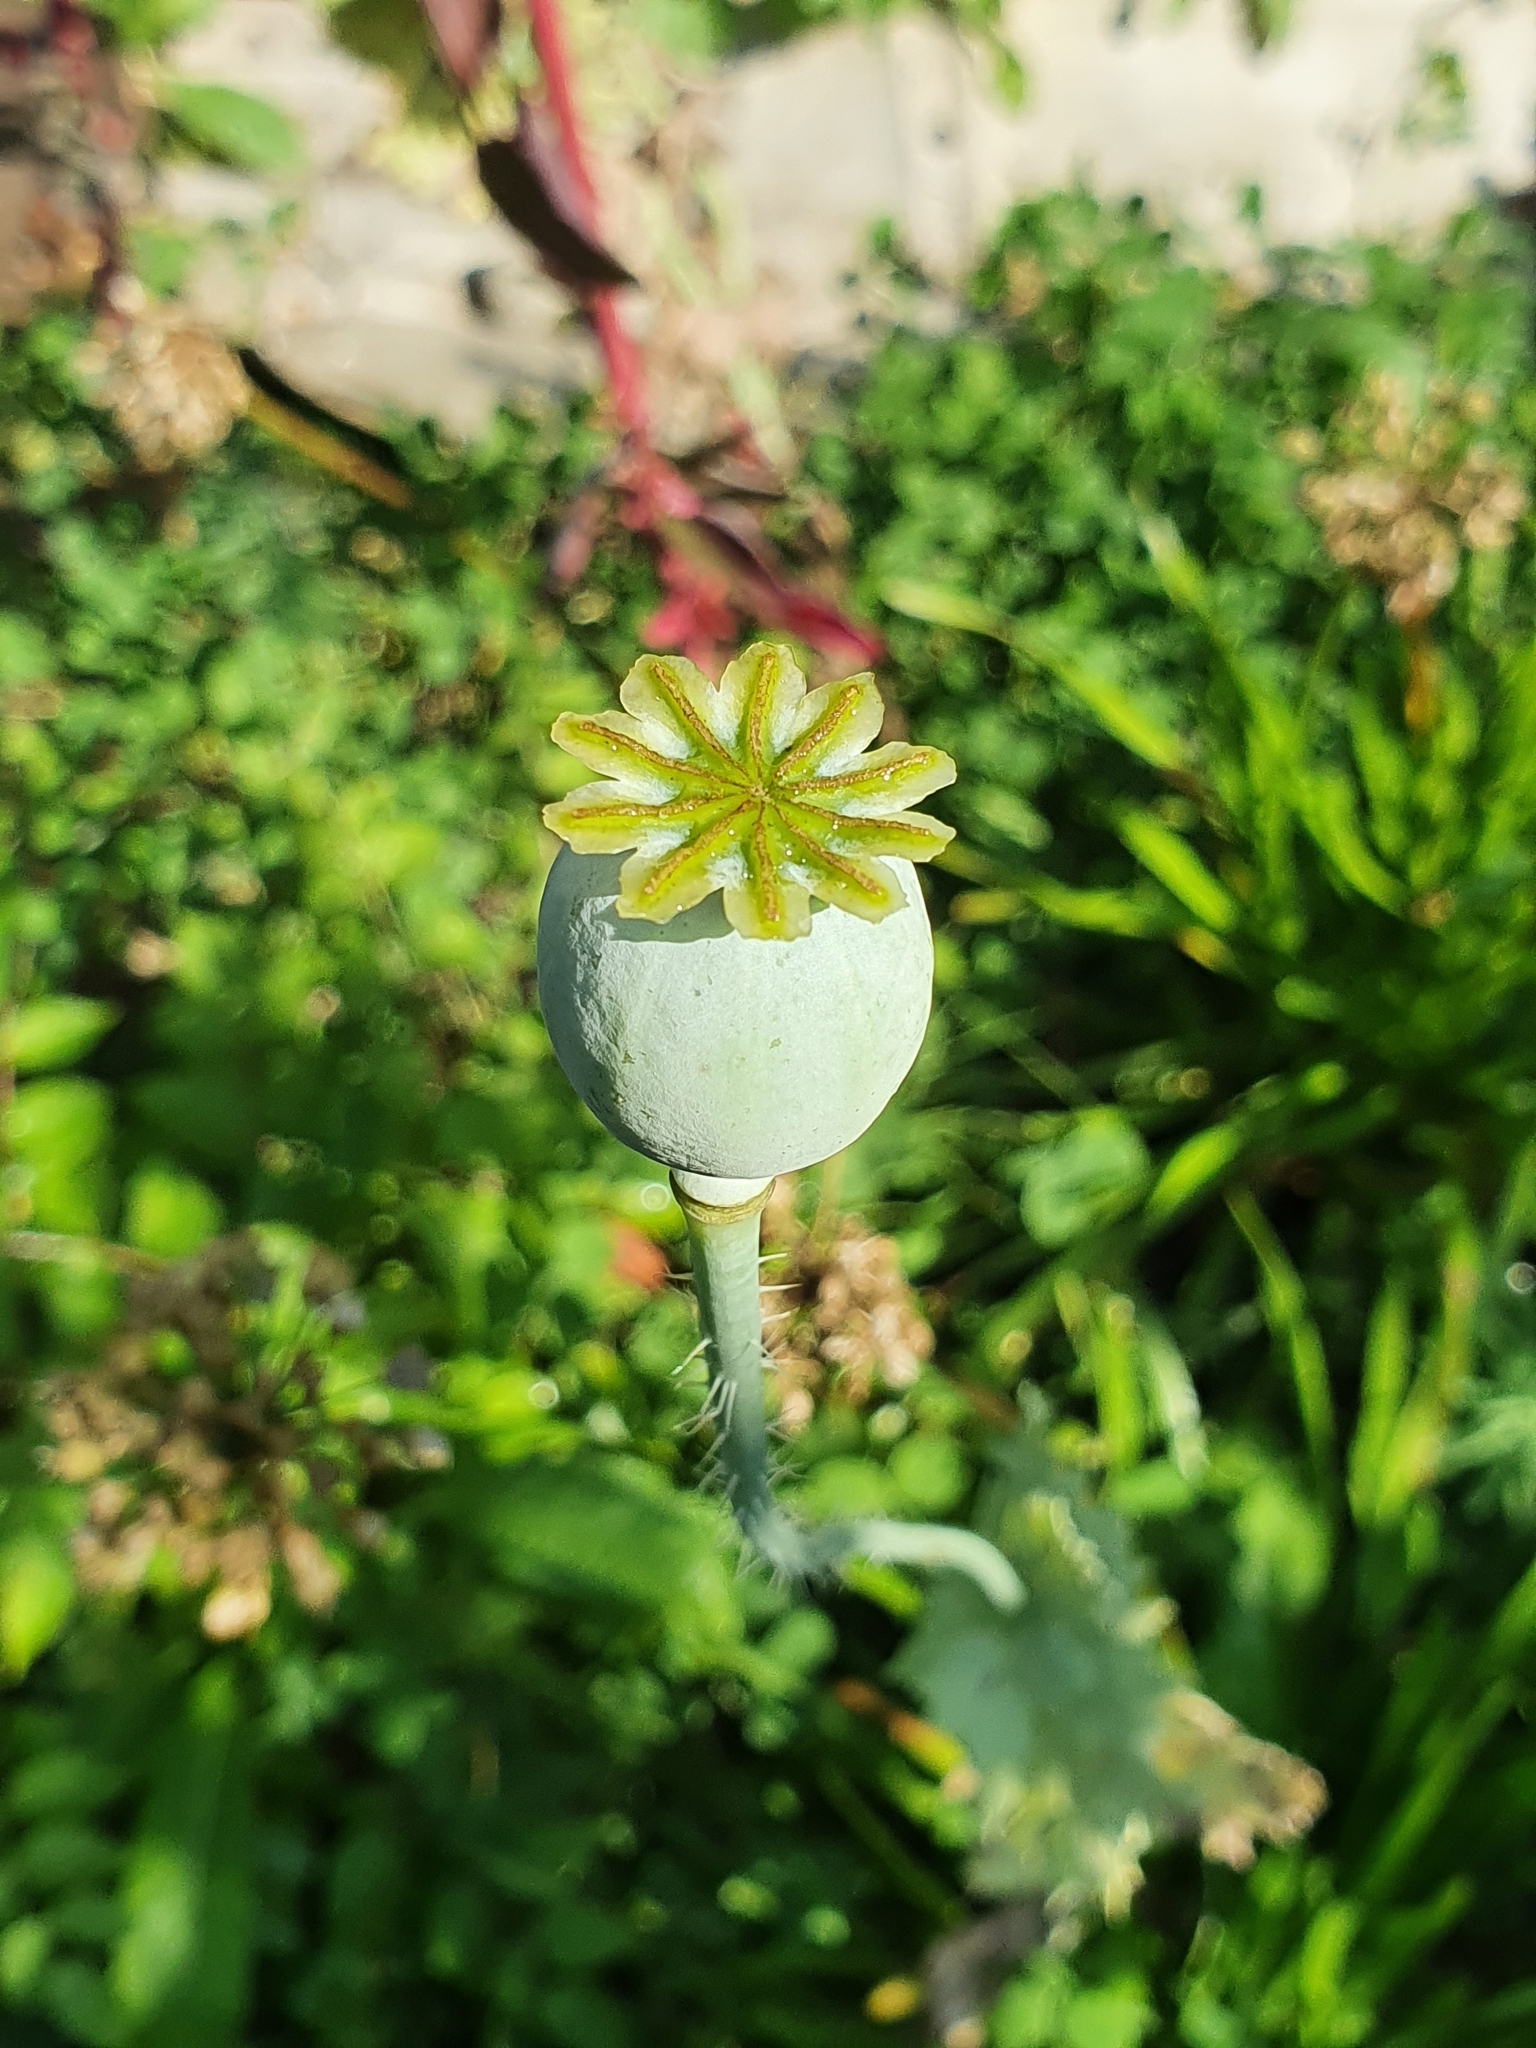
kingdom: Plantae
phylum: Tracheophyta
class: Magnoliopsida
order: Ranunculales
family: Papaveraceae
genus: Papaver
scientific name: Papaver somniferum
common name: Opium poppy
